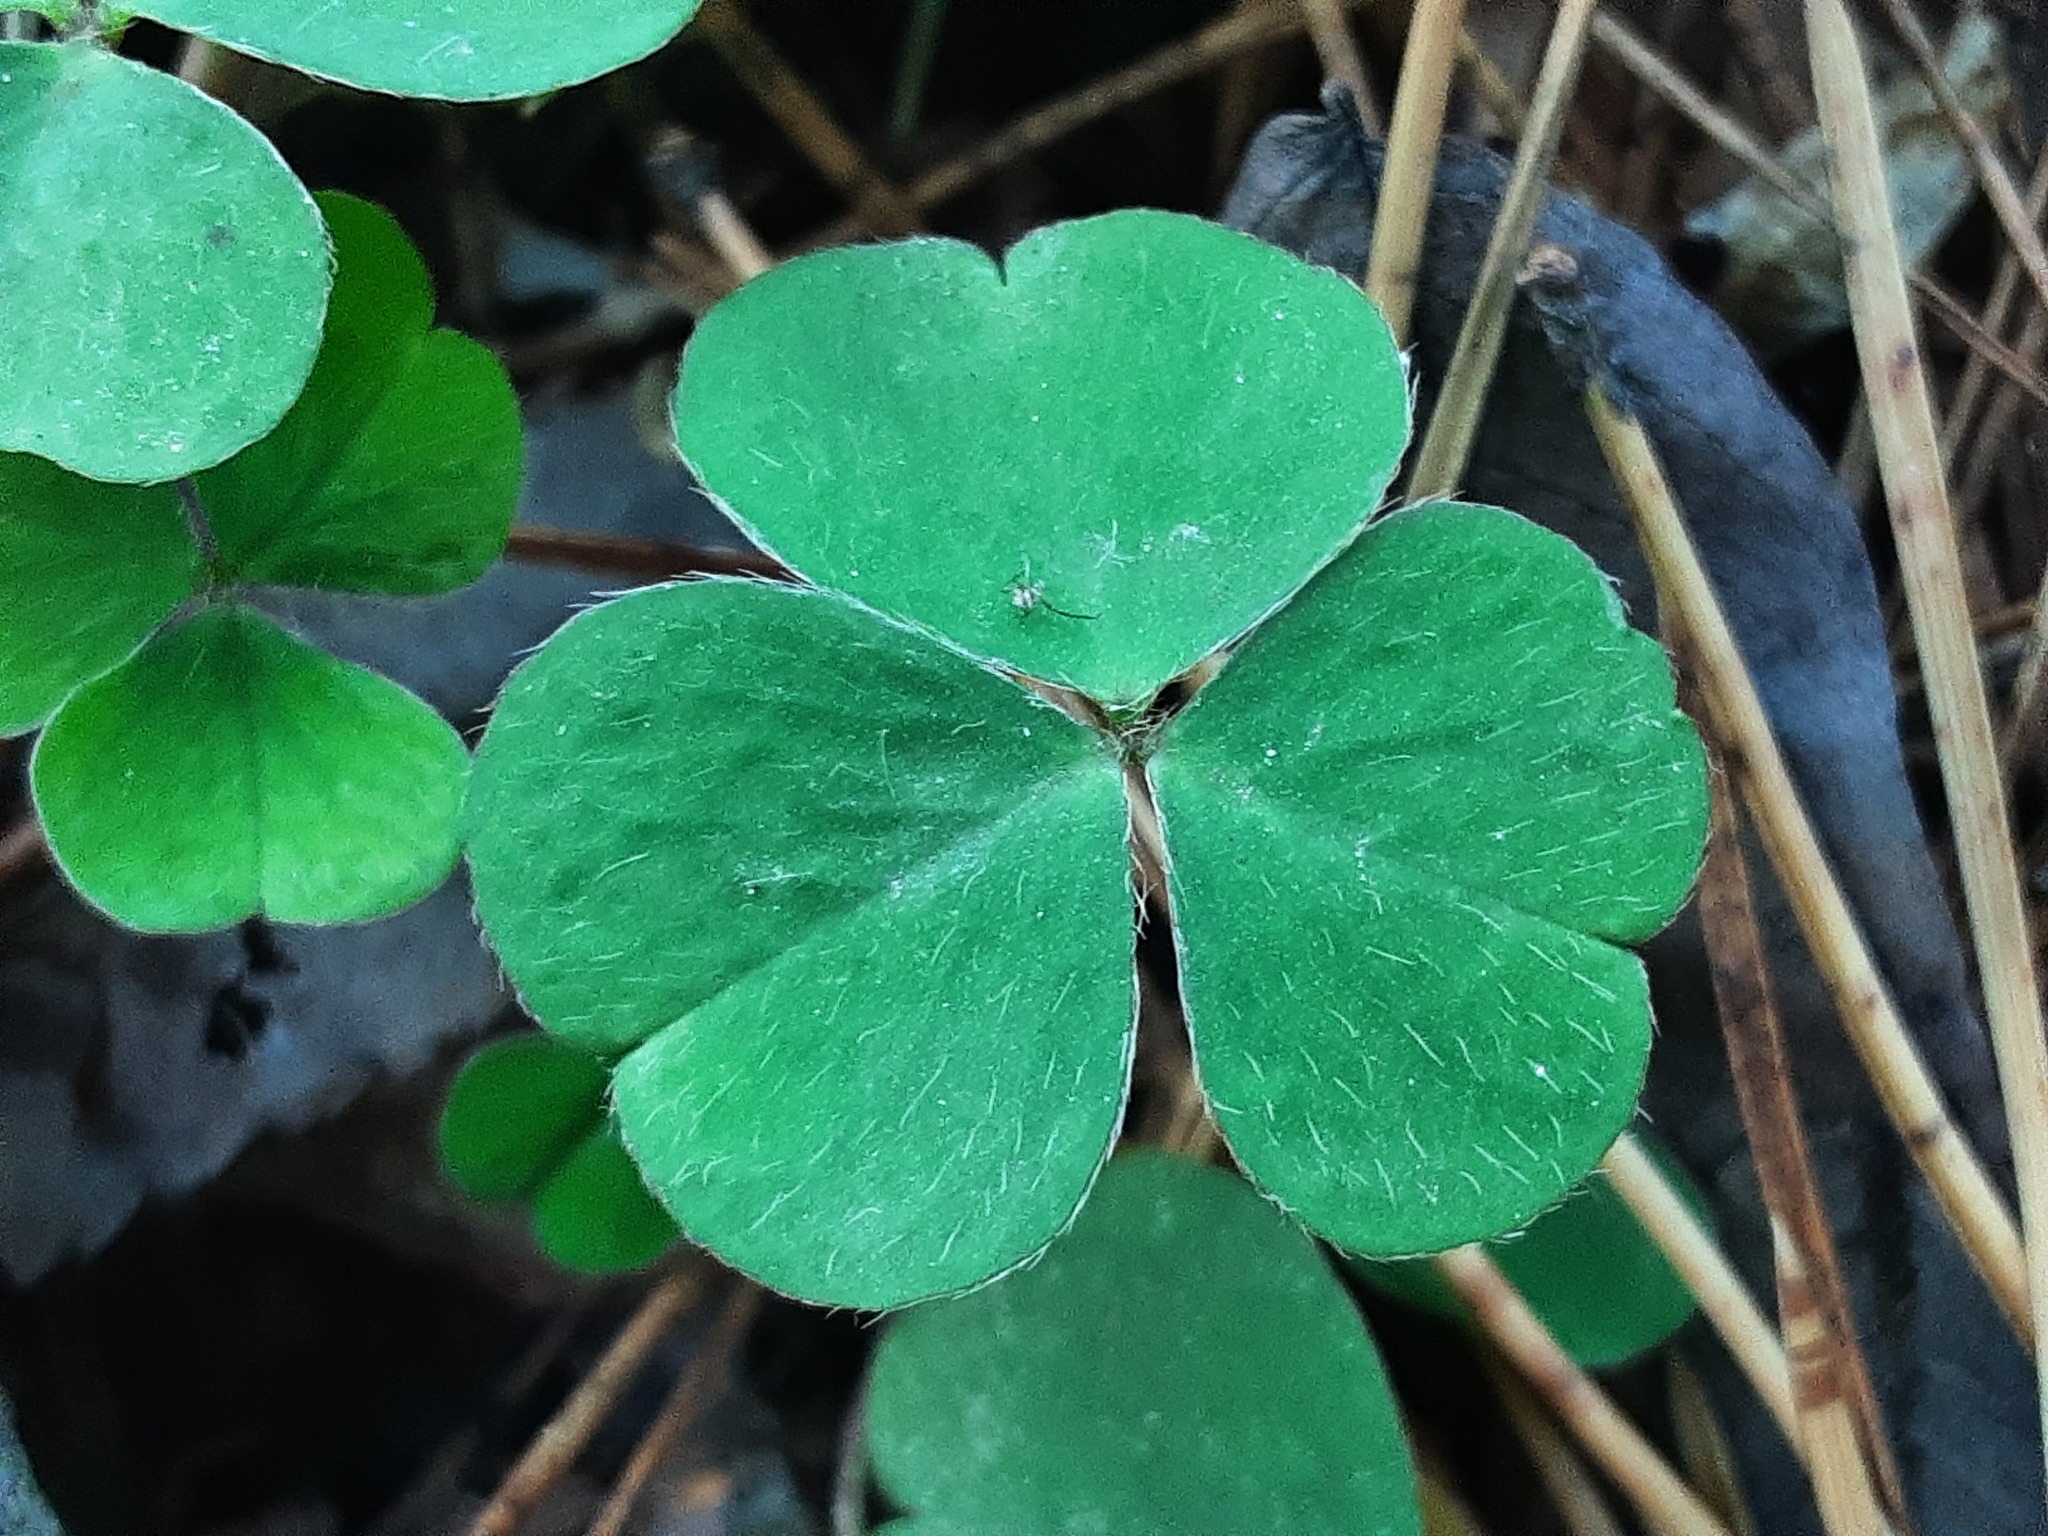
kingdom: Plantae
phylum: Tracheophyta
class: Magnoliopsida
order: Oxalidales
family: Oxalidaceae
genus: Oxalis
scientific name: Oxalis acetosella
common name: Wood-sorrel
